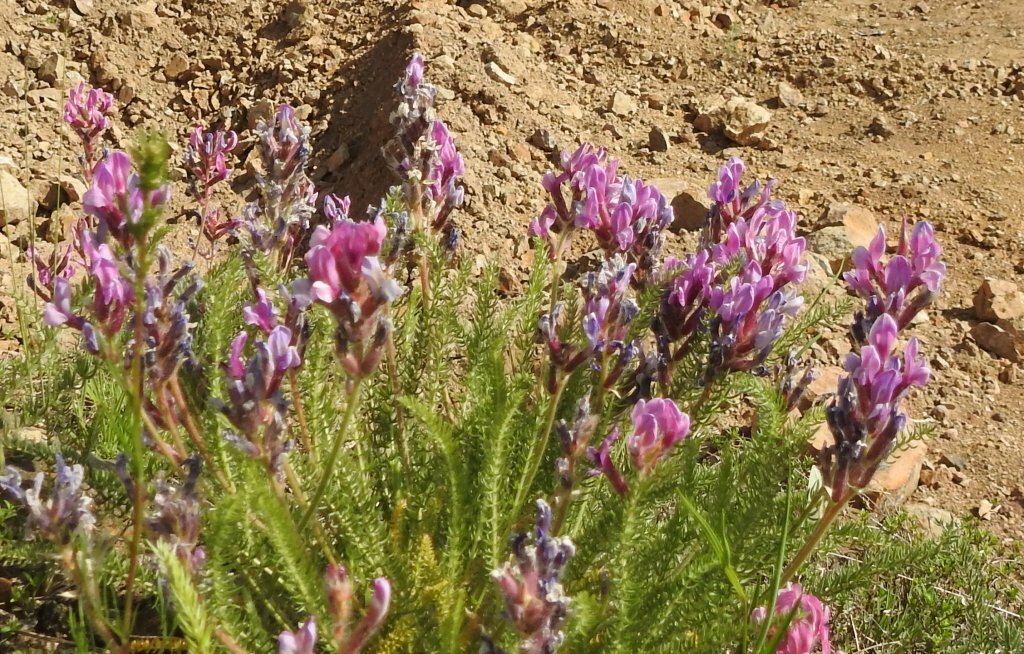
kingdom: Plantae
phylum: Tracheophyta
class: Magnoliopsida
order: Fabales
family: Fabaceae
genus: Oxytropis
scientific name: Oxytropis myriophylla
